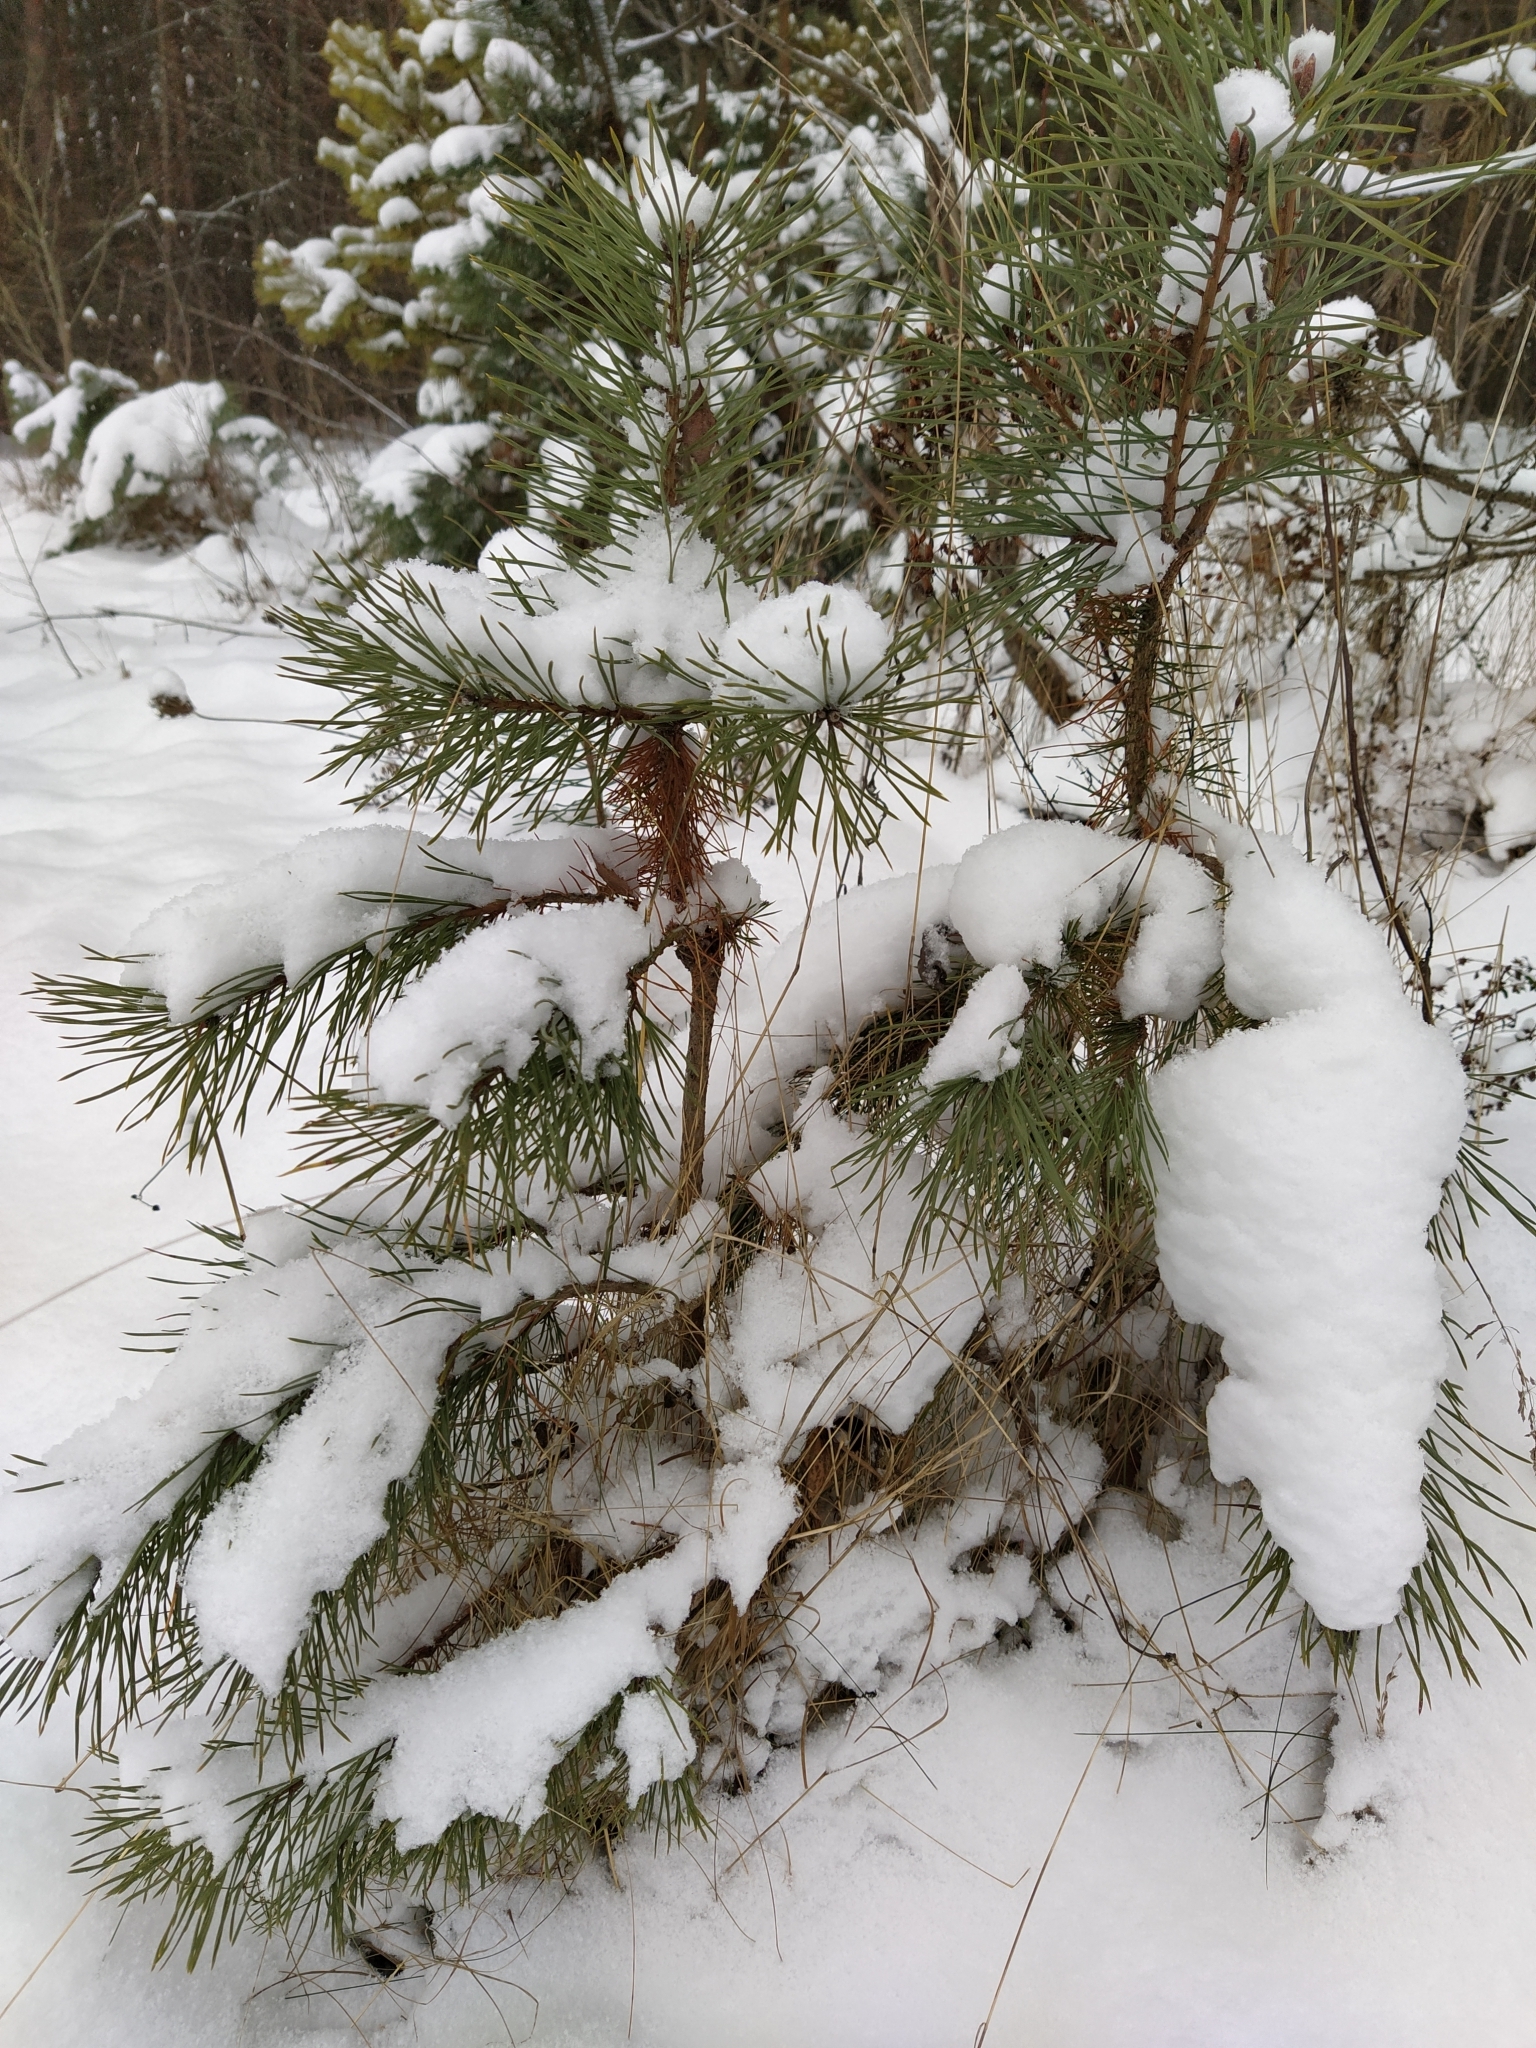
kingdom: Plantae
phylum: Tracheophyta
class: Pinopsida
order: Pinales
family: Pinaceae
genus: Pinus
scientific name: Pinus sylvestris
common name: Scots pine
